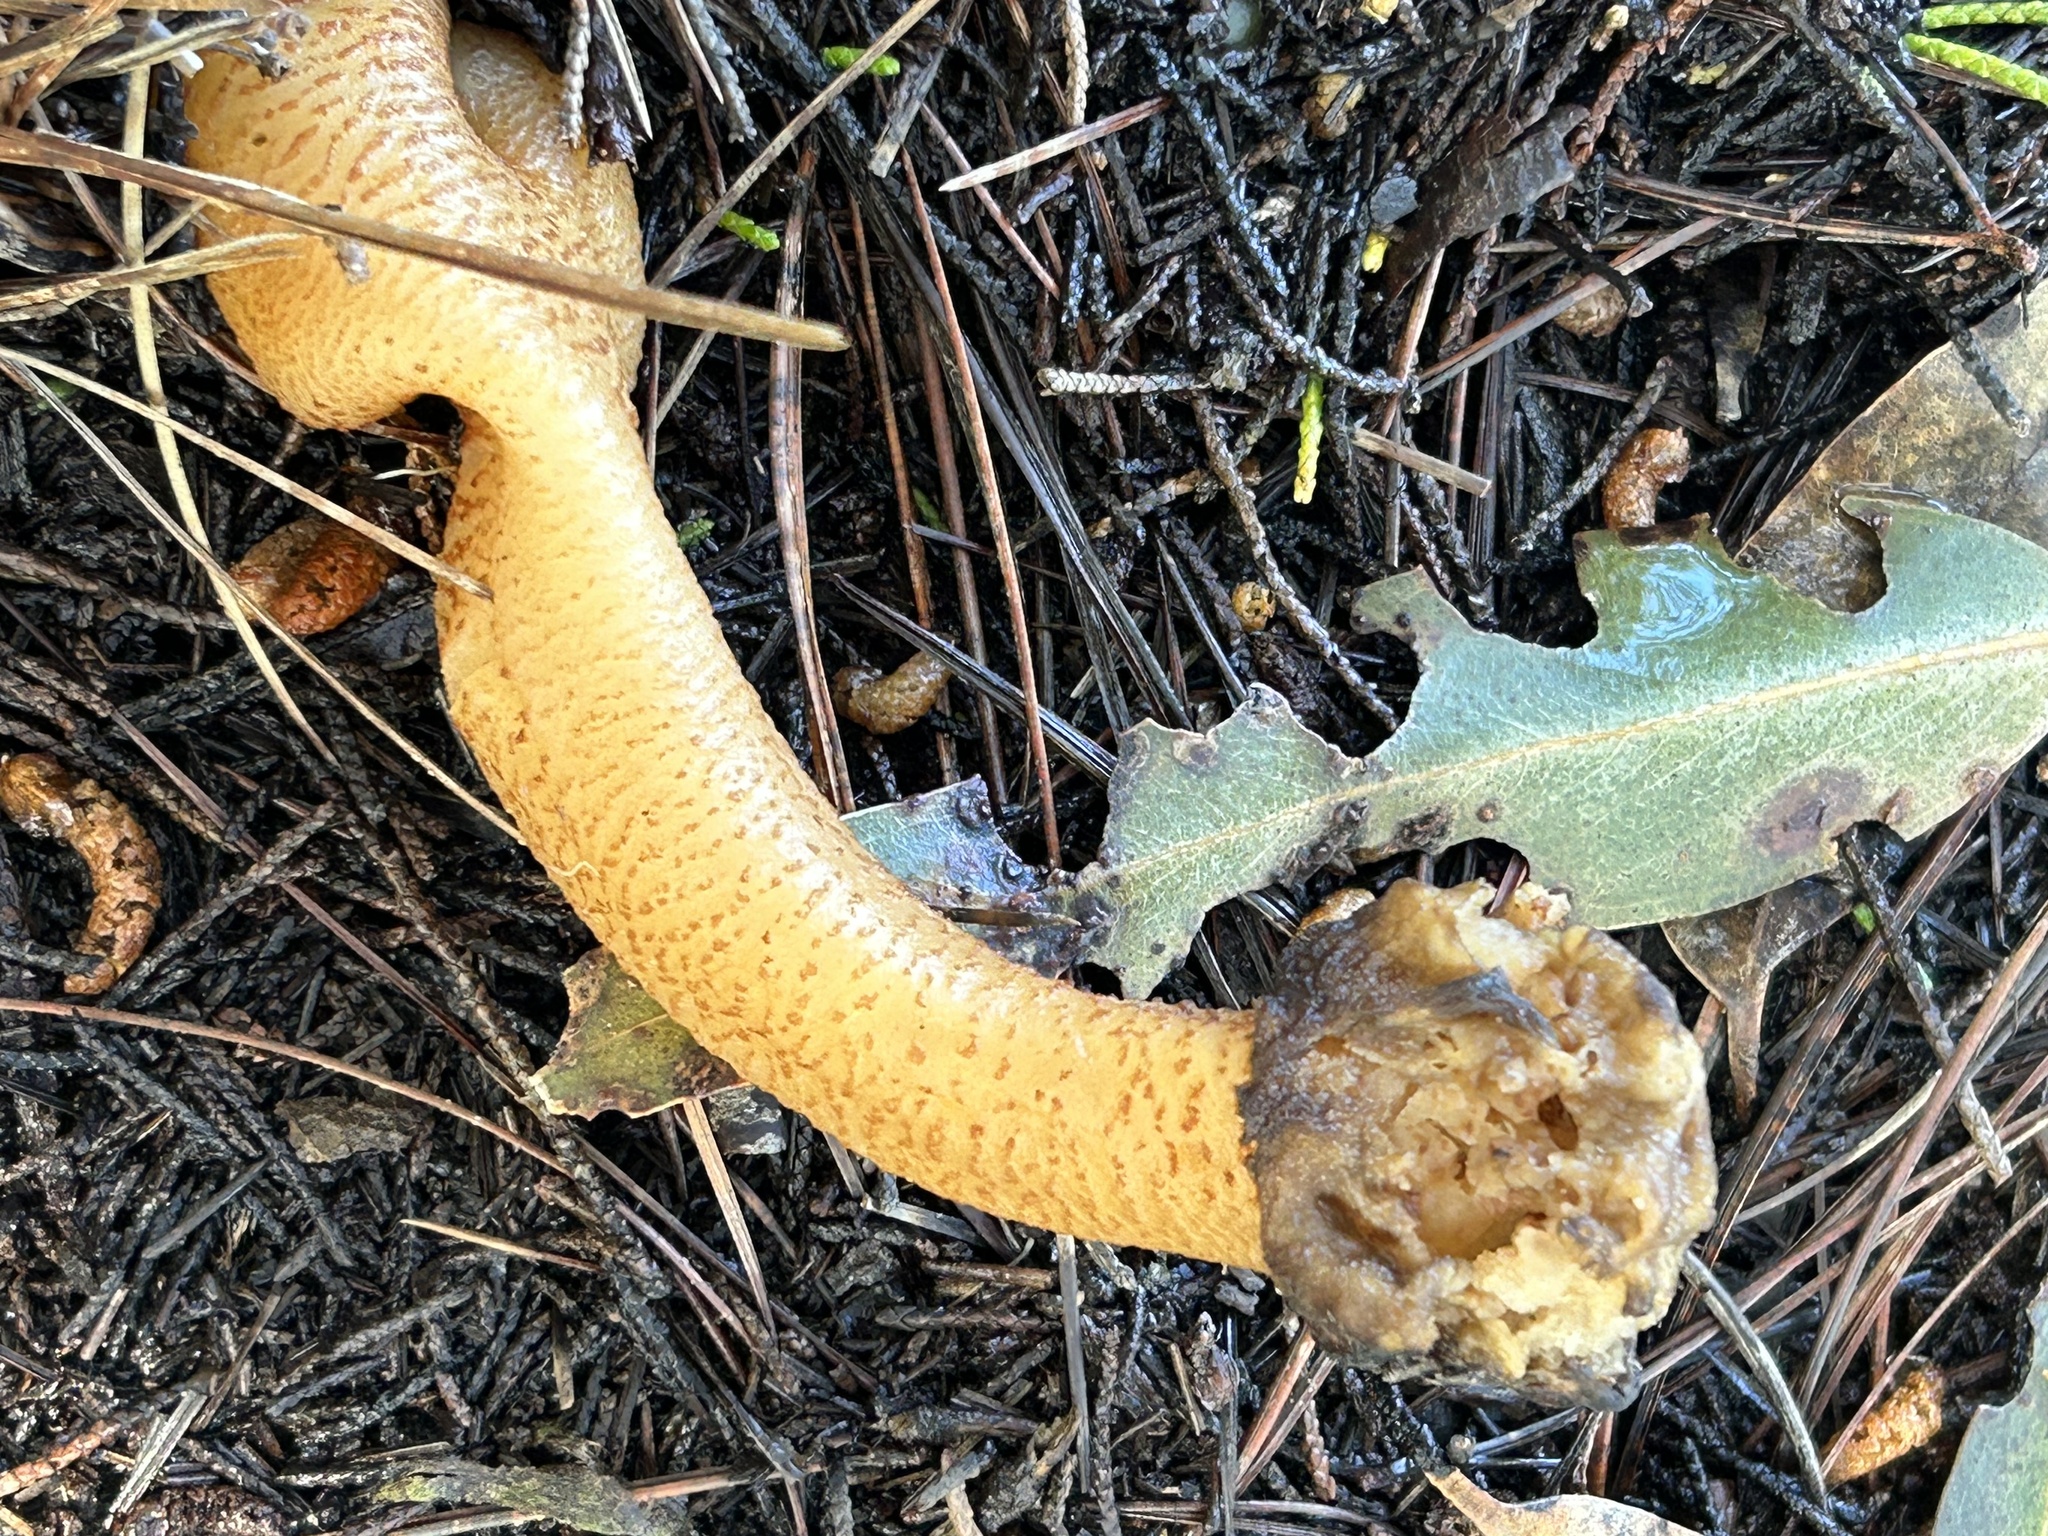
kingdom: Fungi
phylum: Ascomycota
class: Pezizomycetes
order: Pezizales
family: Morchellaceae
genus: Verpa
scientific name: Verpa bohemica
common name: Wrinkled thimble morel
